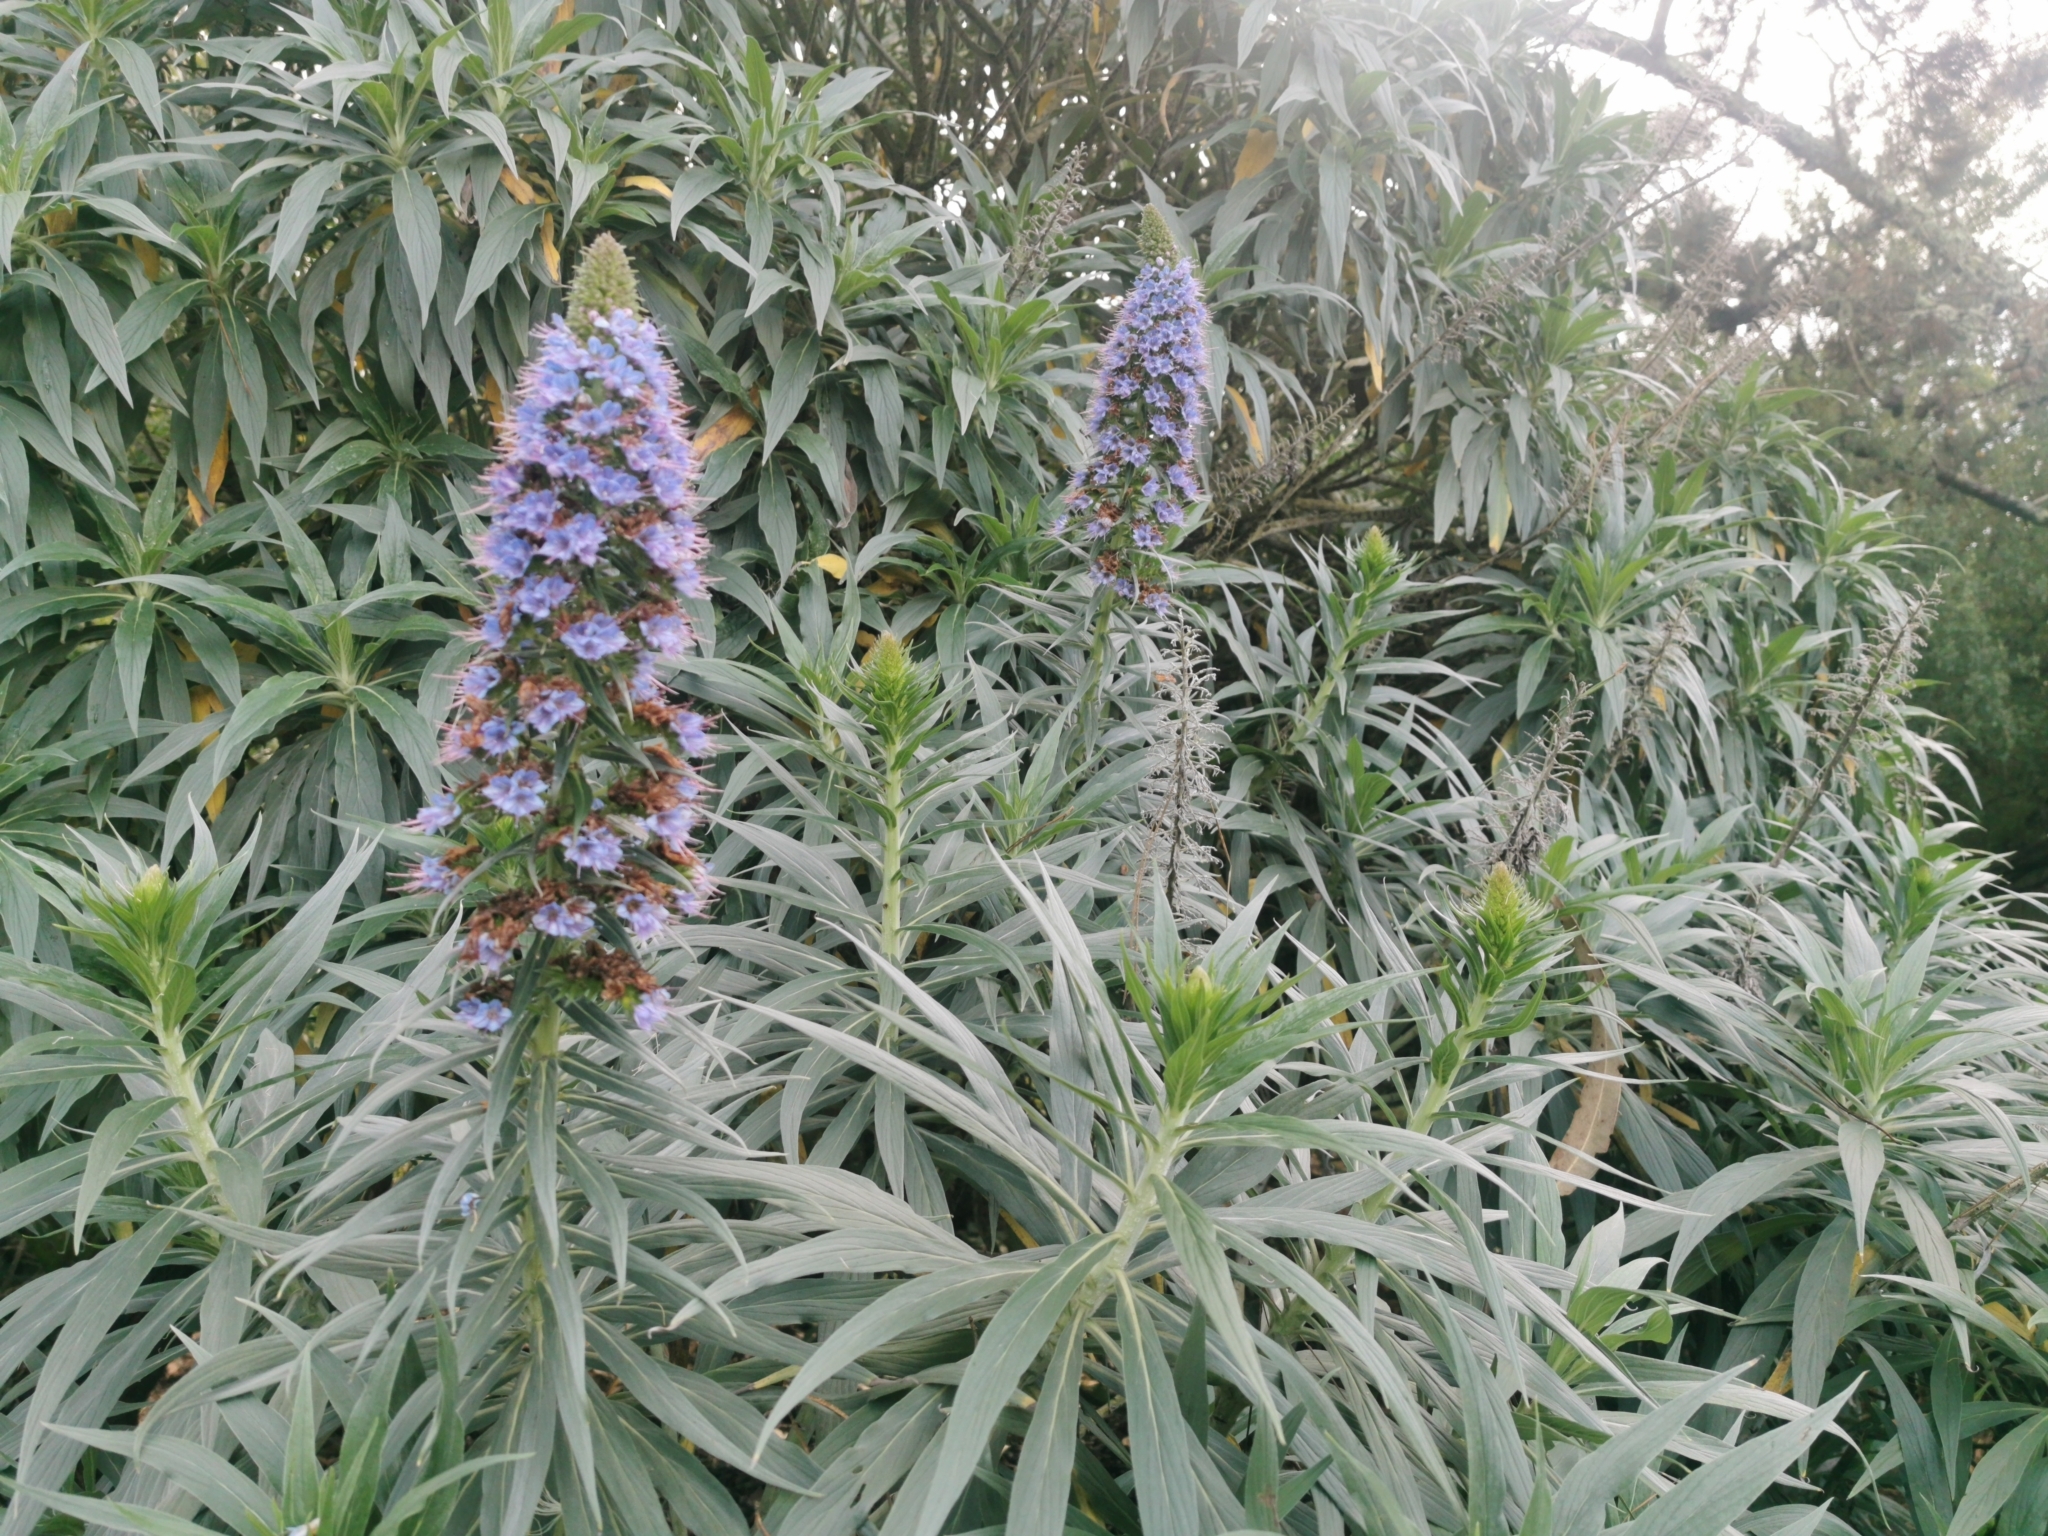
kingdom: Plantae
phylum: Tracheophyta
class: Magnoliopsida
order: Boraginales
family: Boraginaceae
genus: Echium
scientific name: Echium candicans
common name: Pride of madeira
